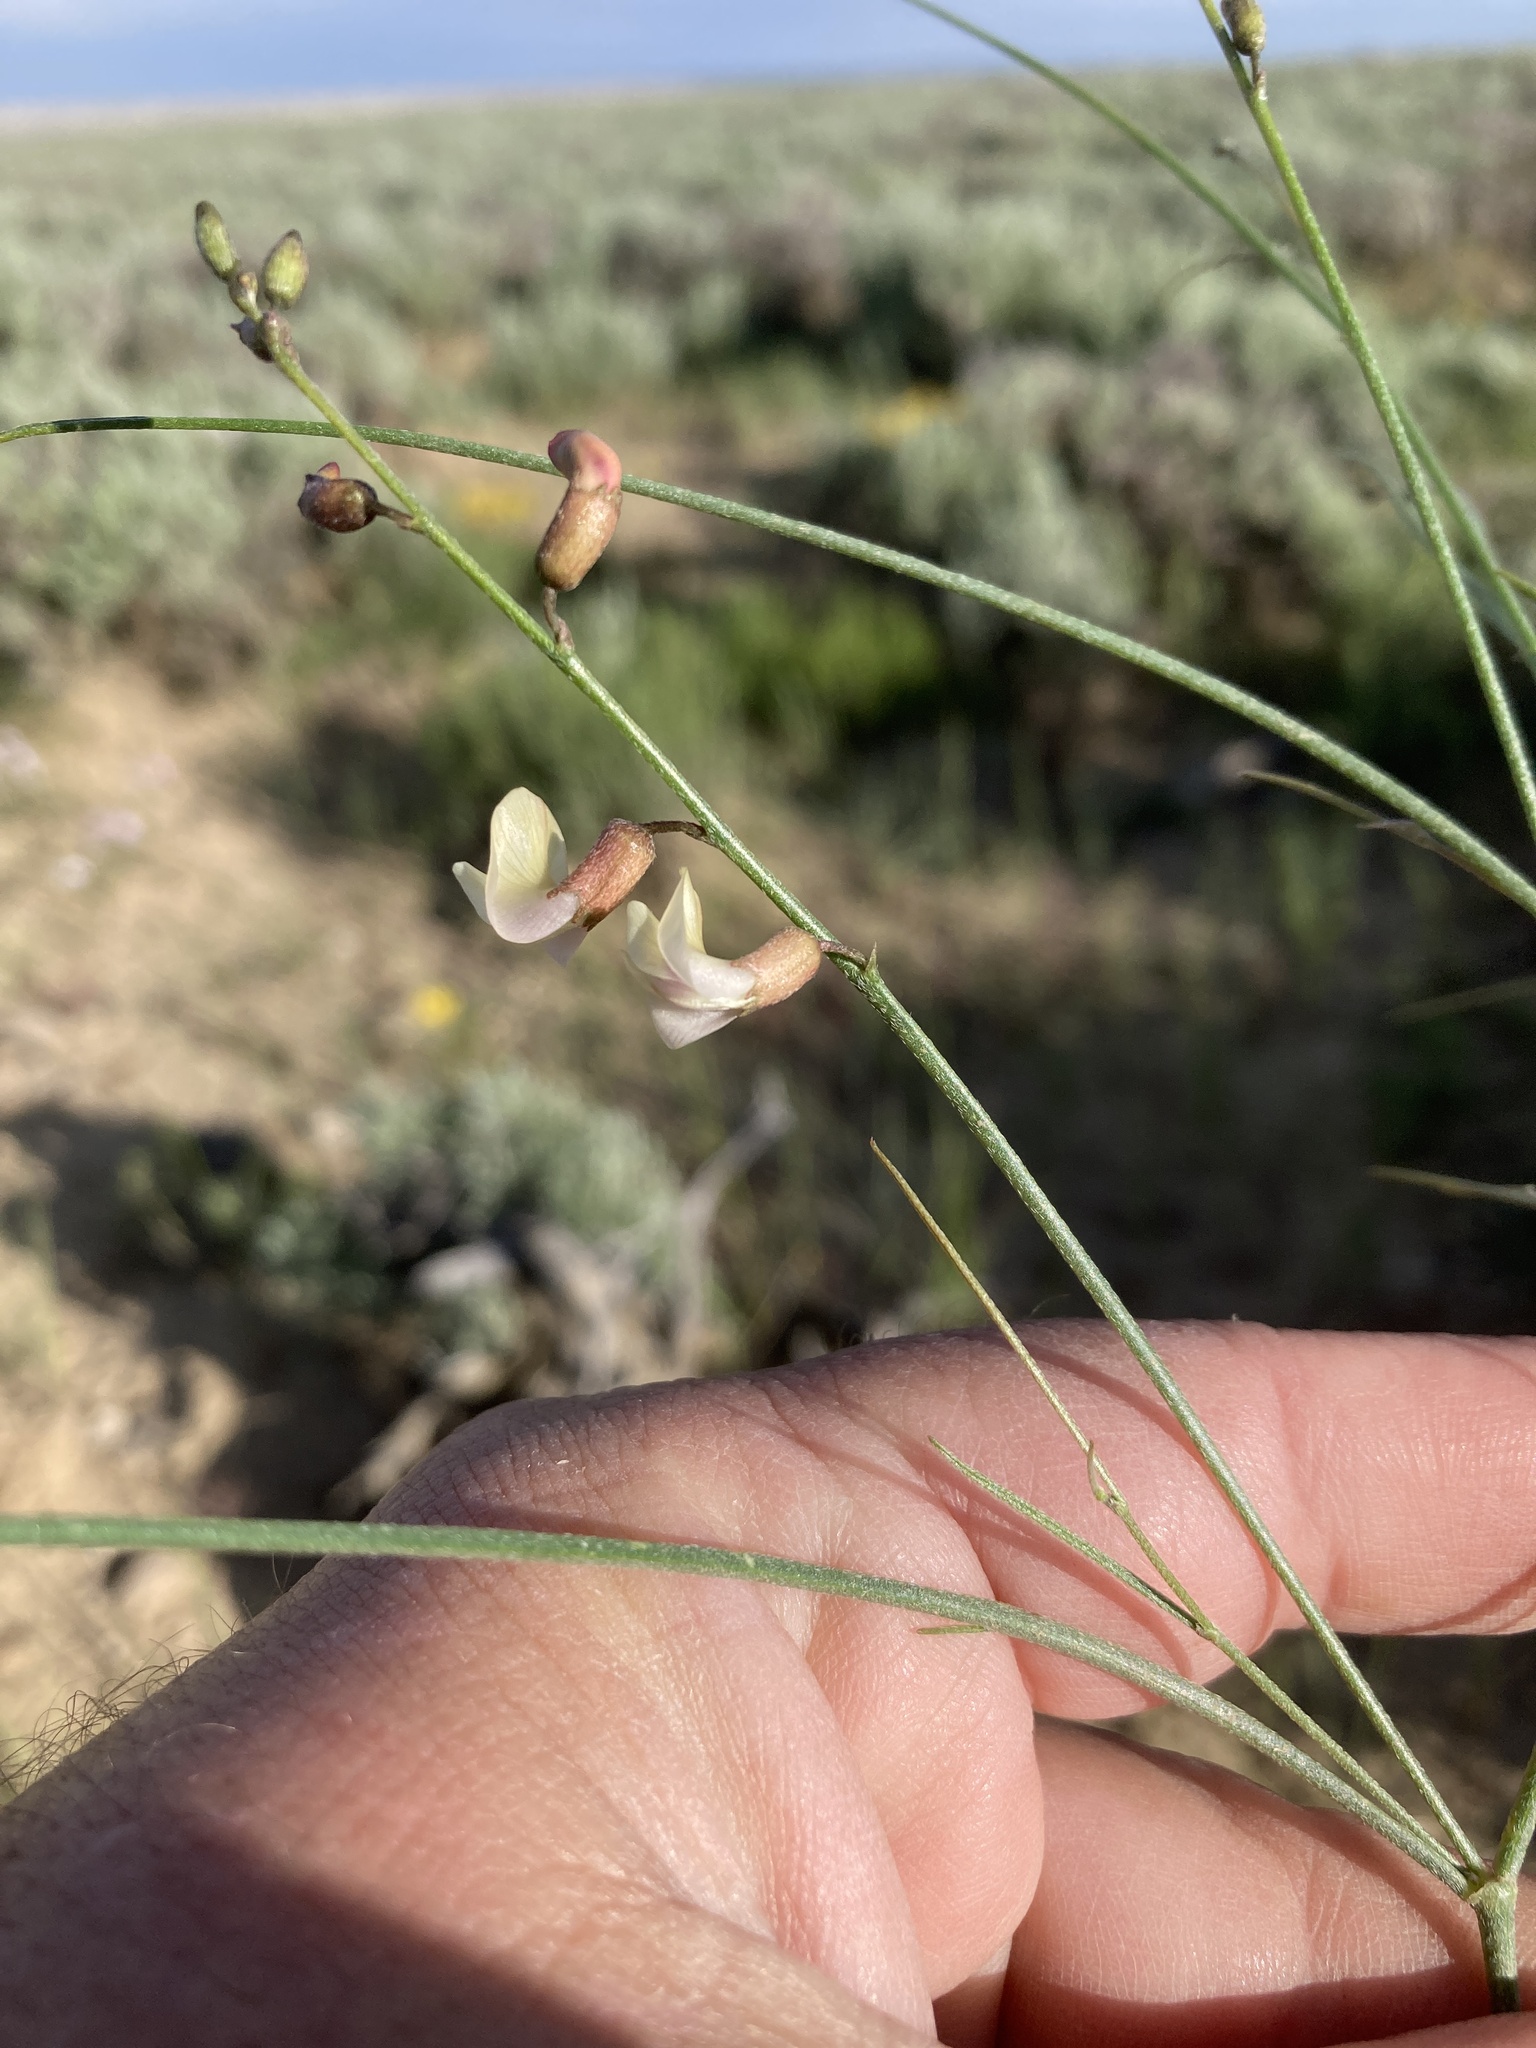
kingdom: Plantae
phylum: Tracheophyta
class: Magnoliopsida
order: Fabales
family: Fabaceae
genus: Astragalus
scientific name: Astragalus convallarius
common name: Lesser rushy milk-vetch
